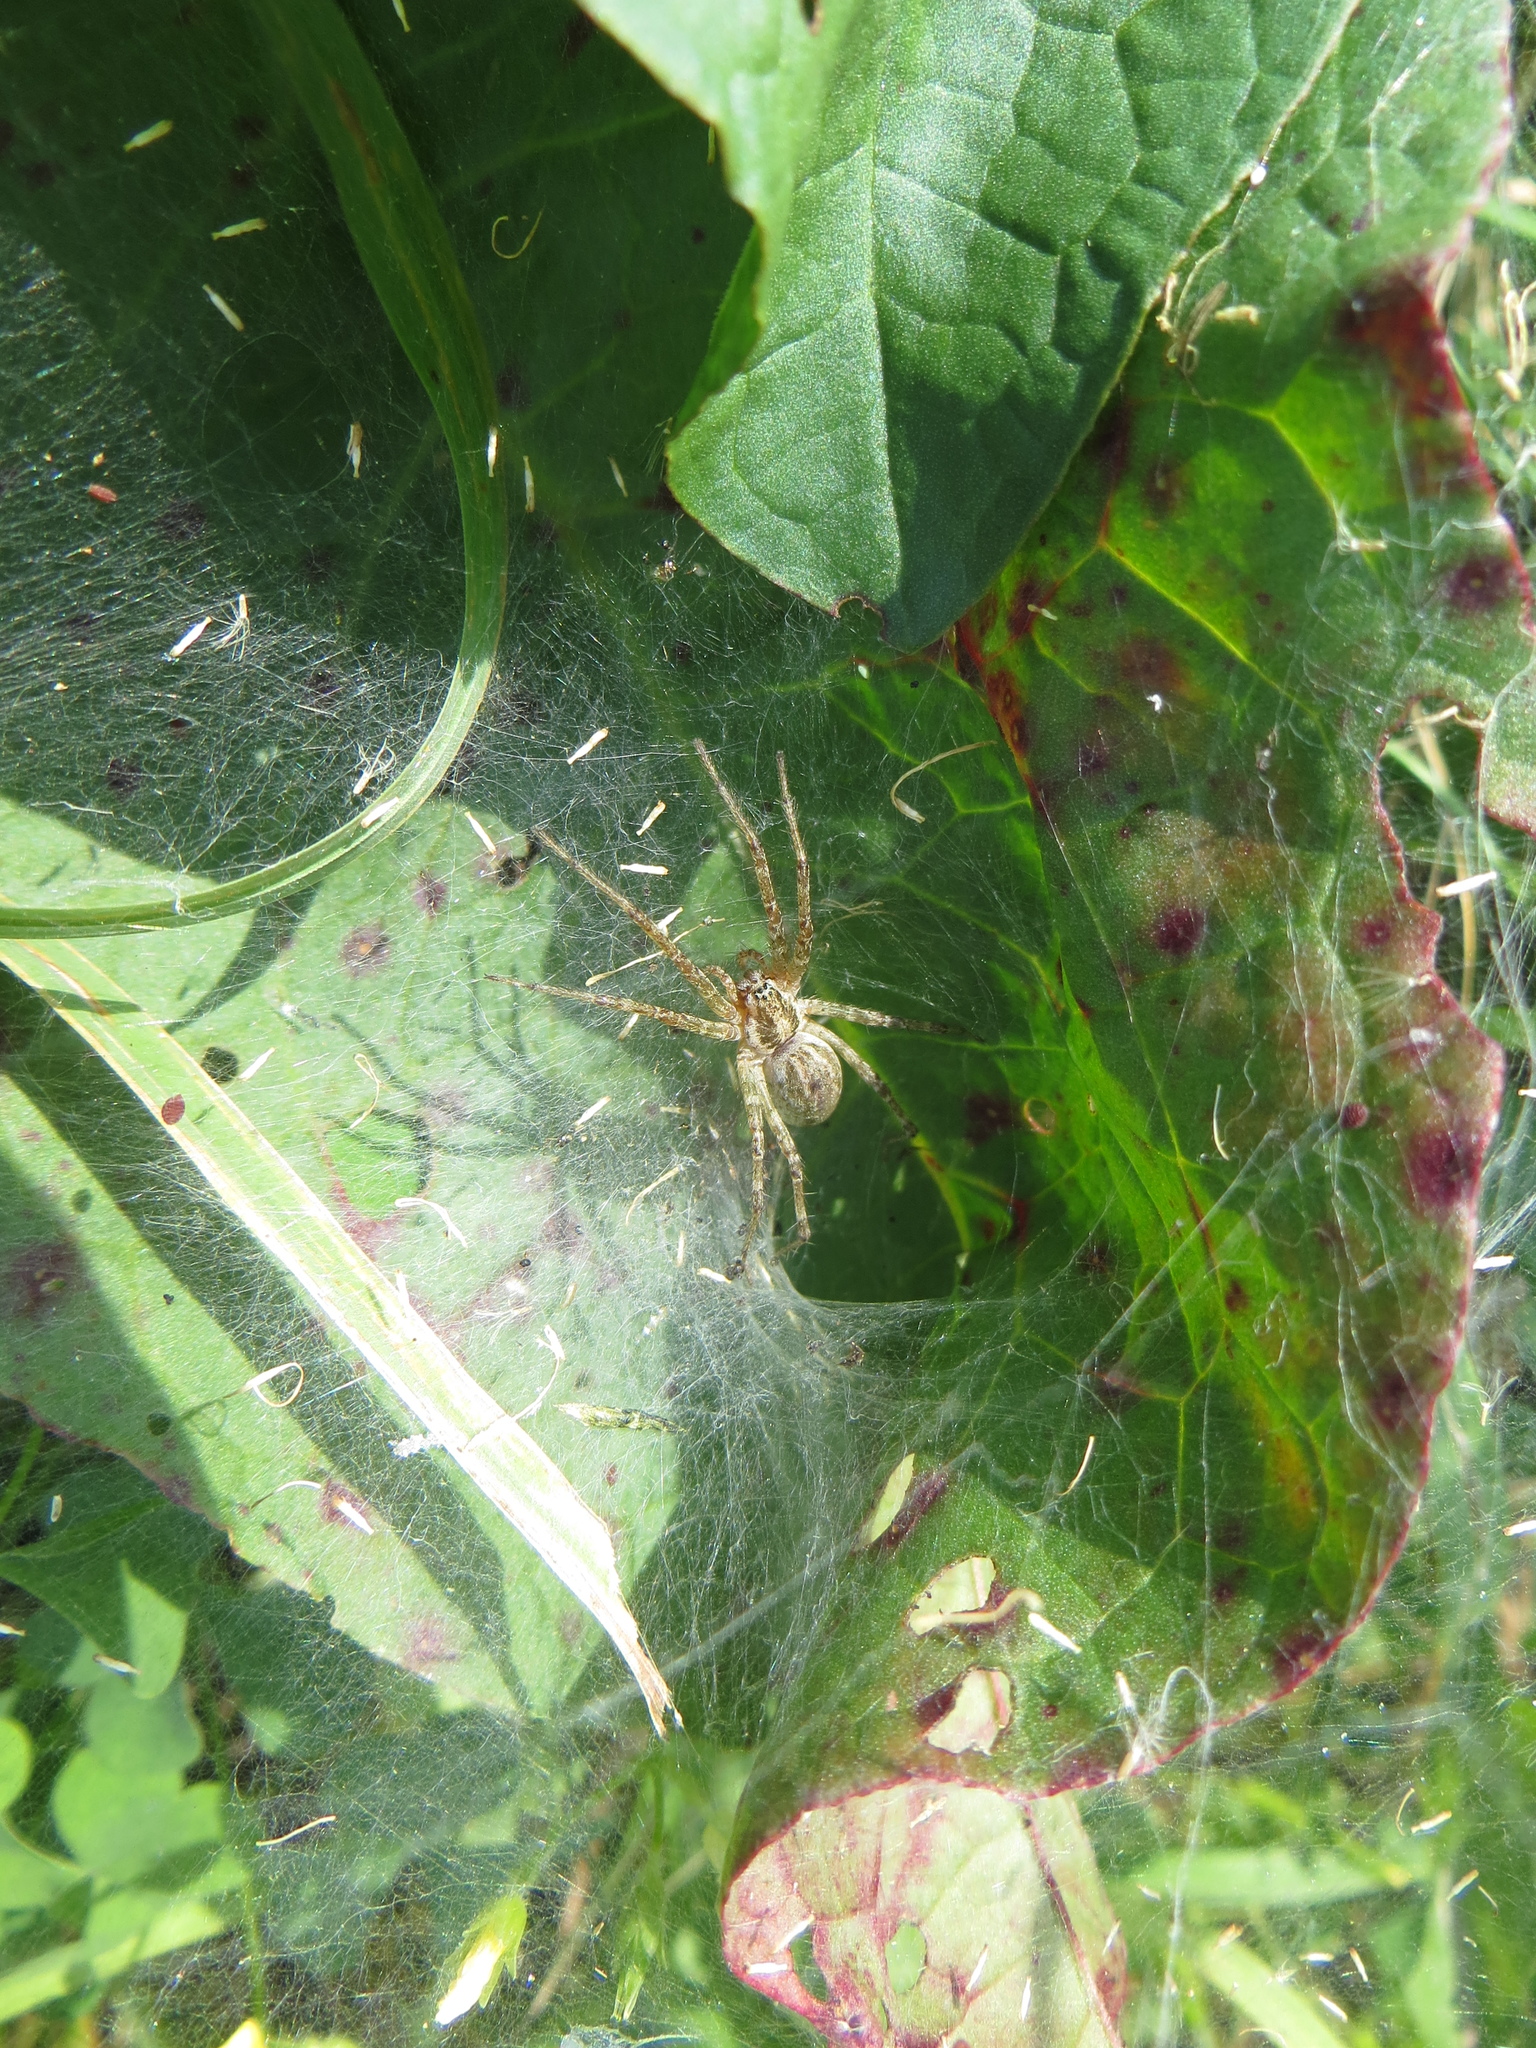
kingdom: Animalia
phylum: Arthropoda
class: Arachnida
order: Araneae
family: Agelenidae
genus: Allagelena
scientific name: Allagelena gracilens
